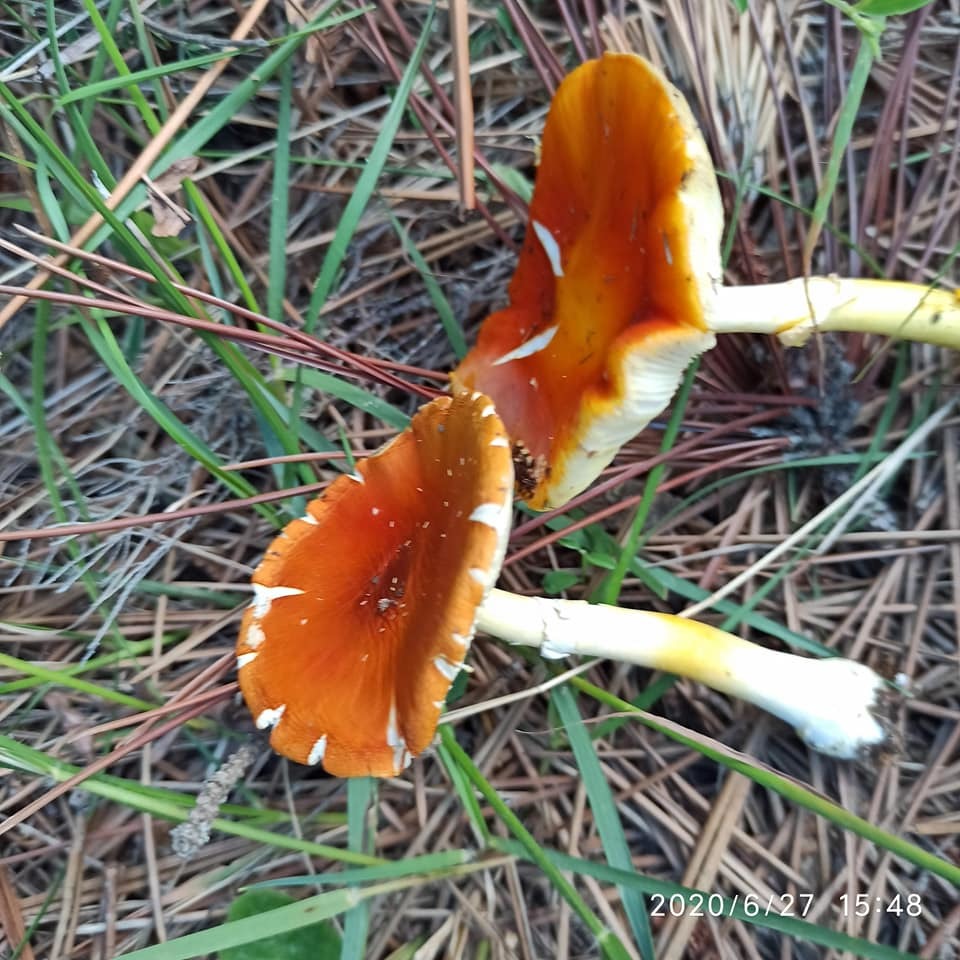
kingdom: Fungi
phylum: Basidiomycota
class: Agaricomycetes
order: Agaricales
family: Amanitaceae
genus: Amanita
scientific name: Amanita erythrocephala
